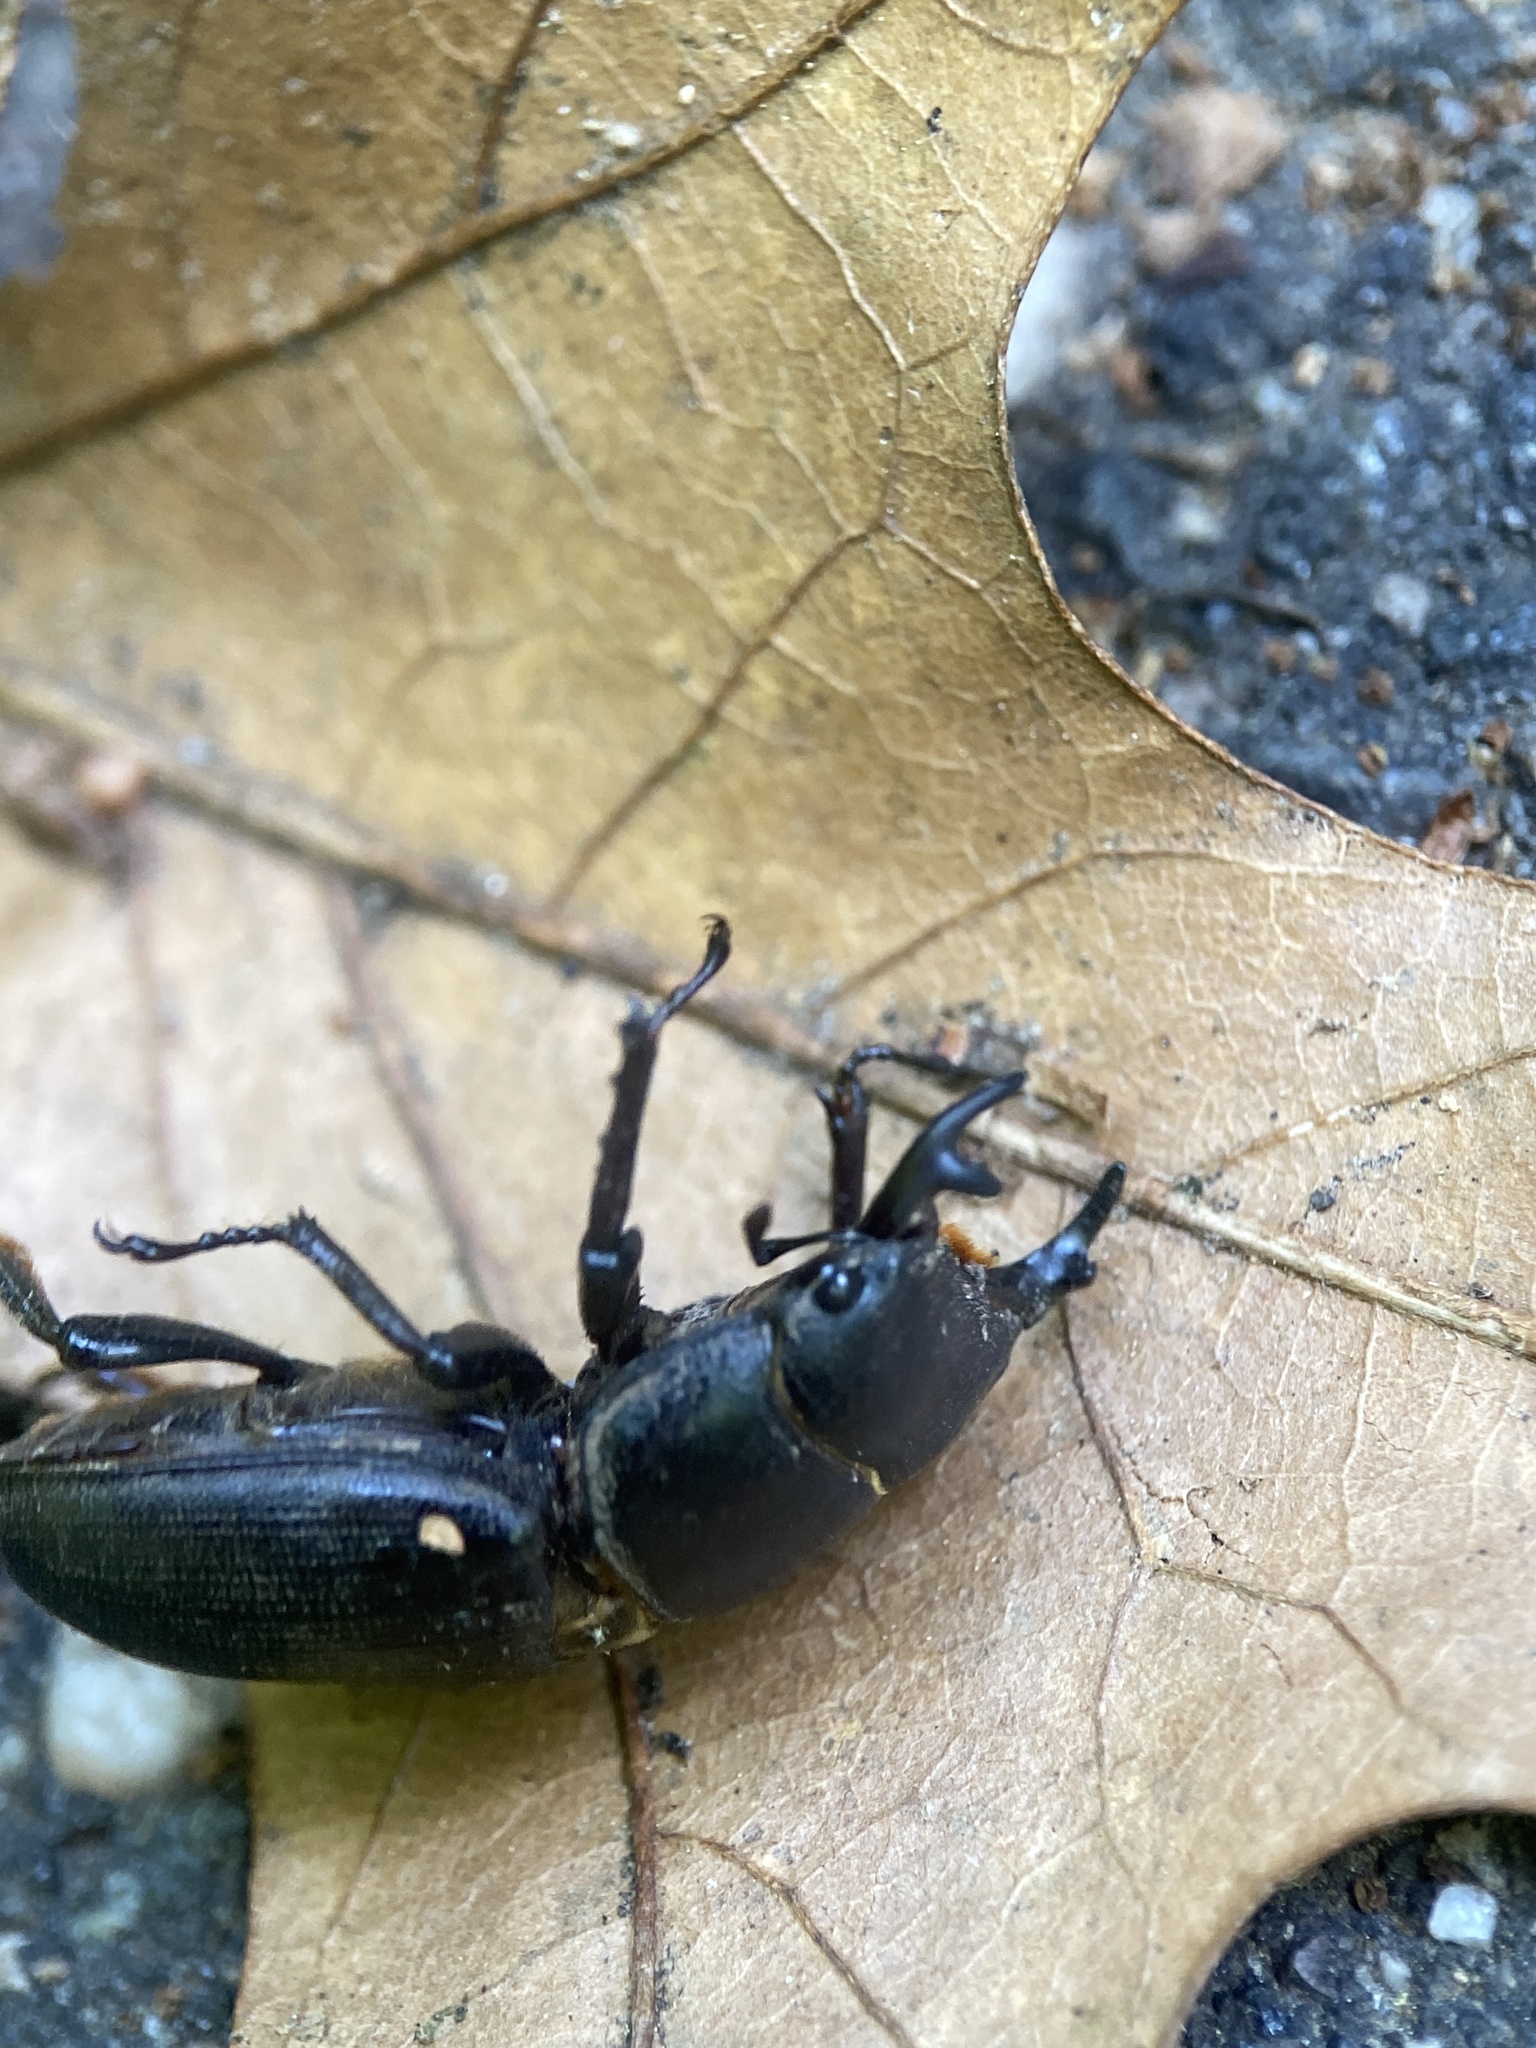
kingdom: Animalia
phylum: Arthropoda
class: Insecta
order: Coleoptera
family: Lucanidae
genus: Dorcus
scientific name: Dorcus parallelus
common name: Antelope beetle
